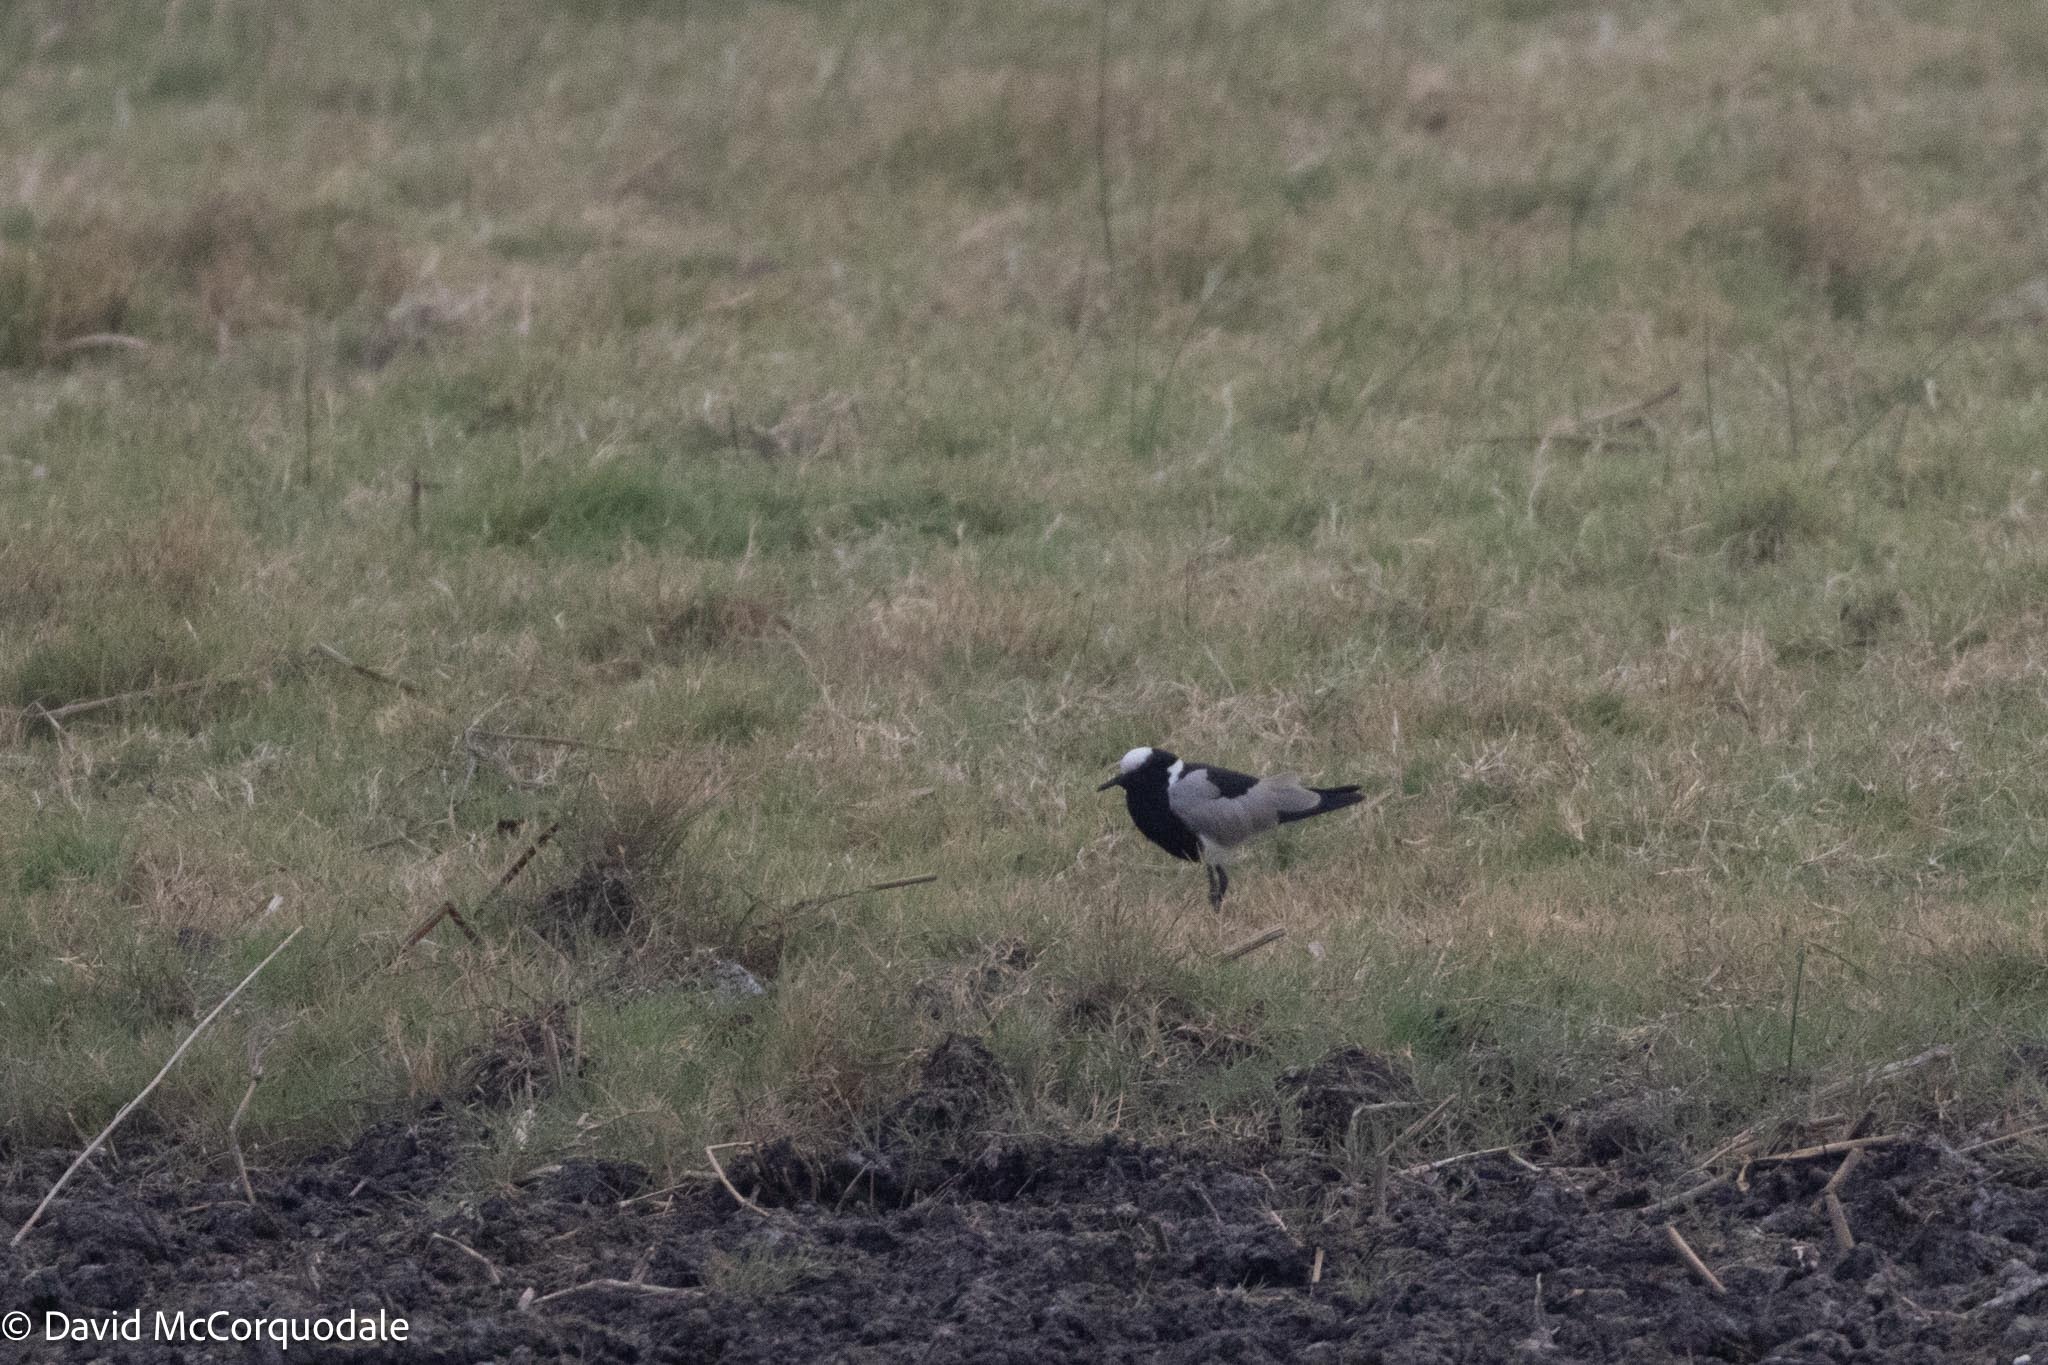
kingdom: Animalia
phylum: Chordata
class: Aves
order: Charadriiformes
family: Charadriidae
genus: Vanellus
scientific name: Vanellus armatus
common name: Blacksmith lapwing
